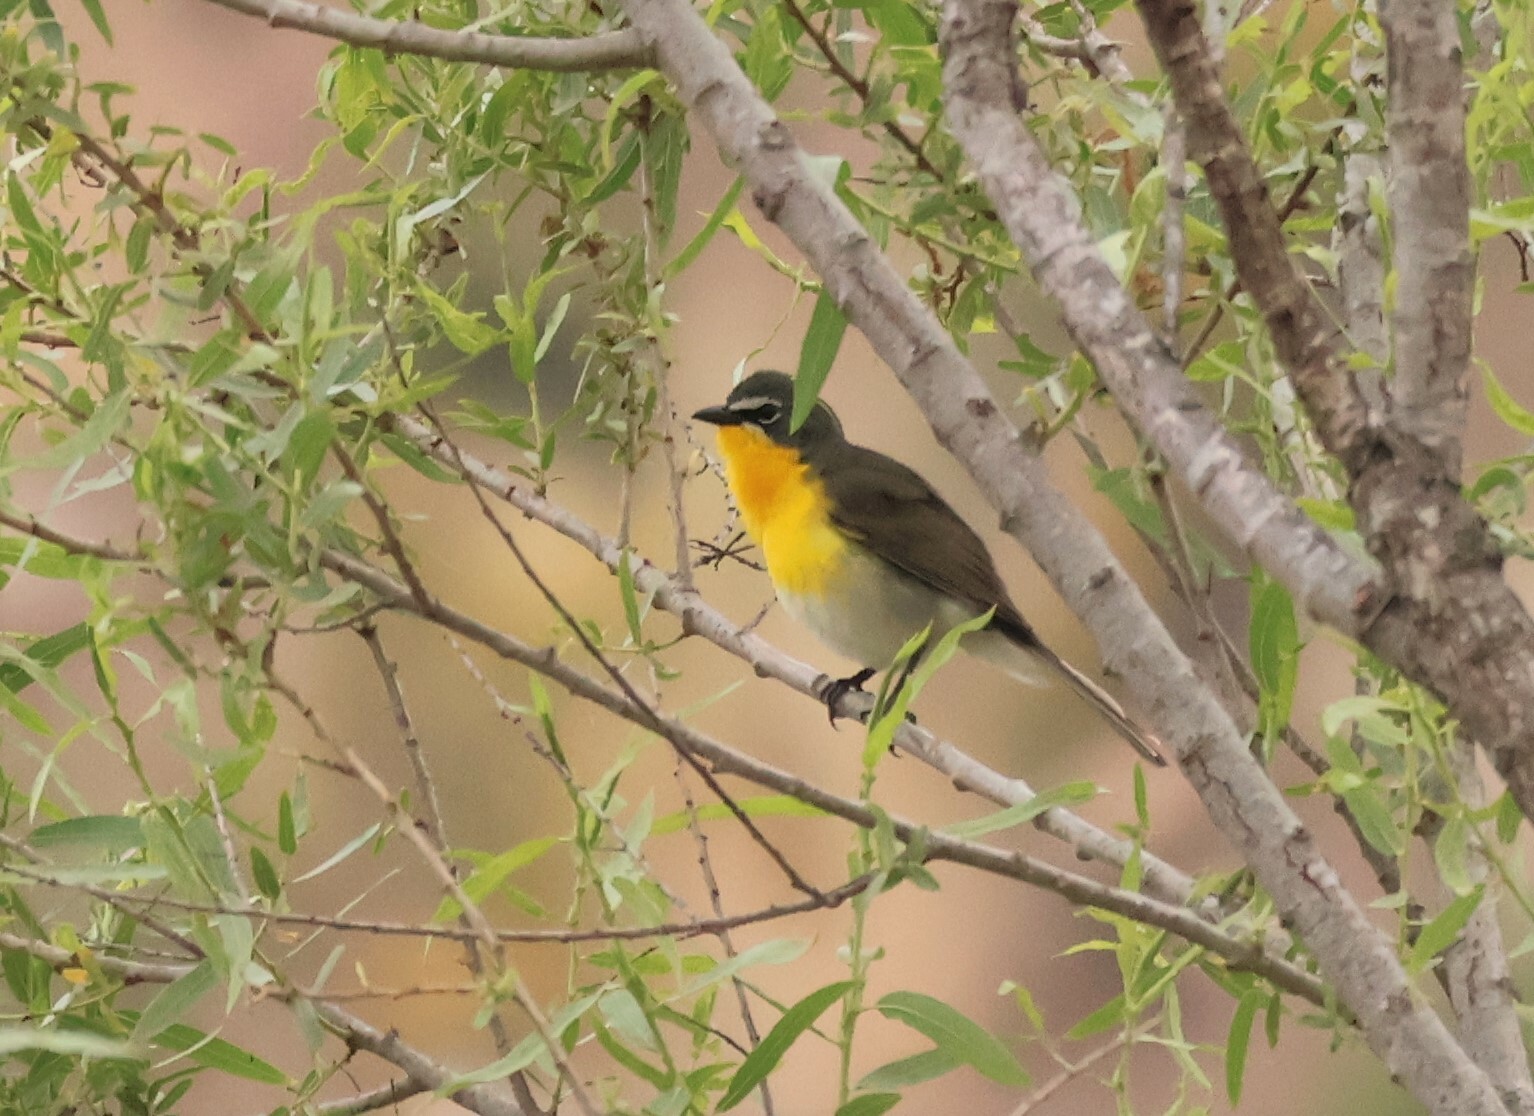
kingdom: Animalia
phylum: Chordata
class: Aves
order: Passeriformes
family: Parulidae
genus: Icteria
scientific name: Icteria virens
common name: Yellow-breasted chat
